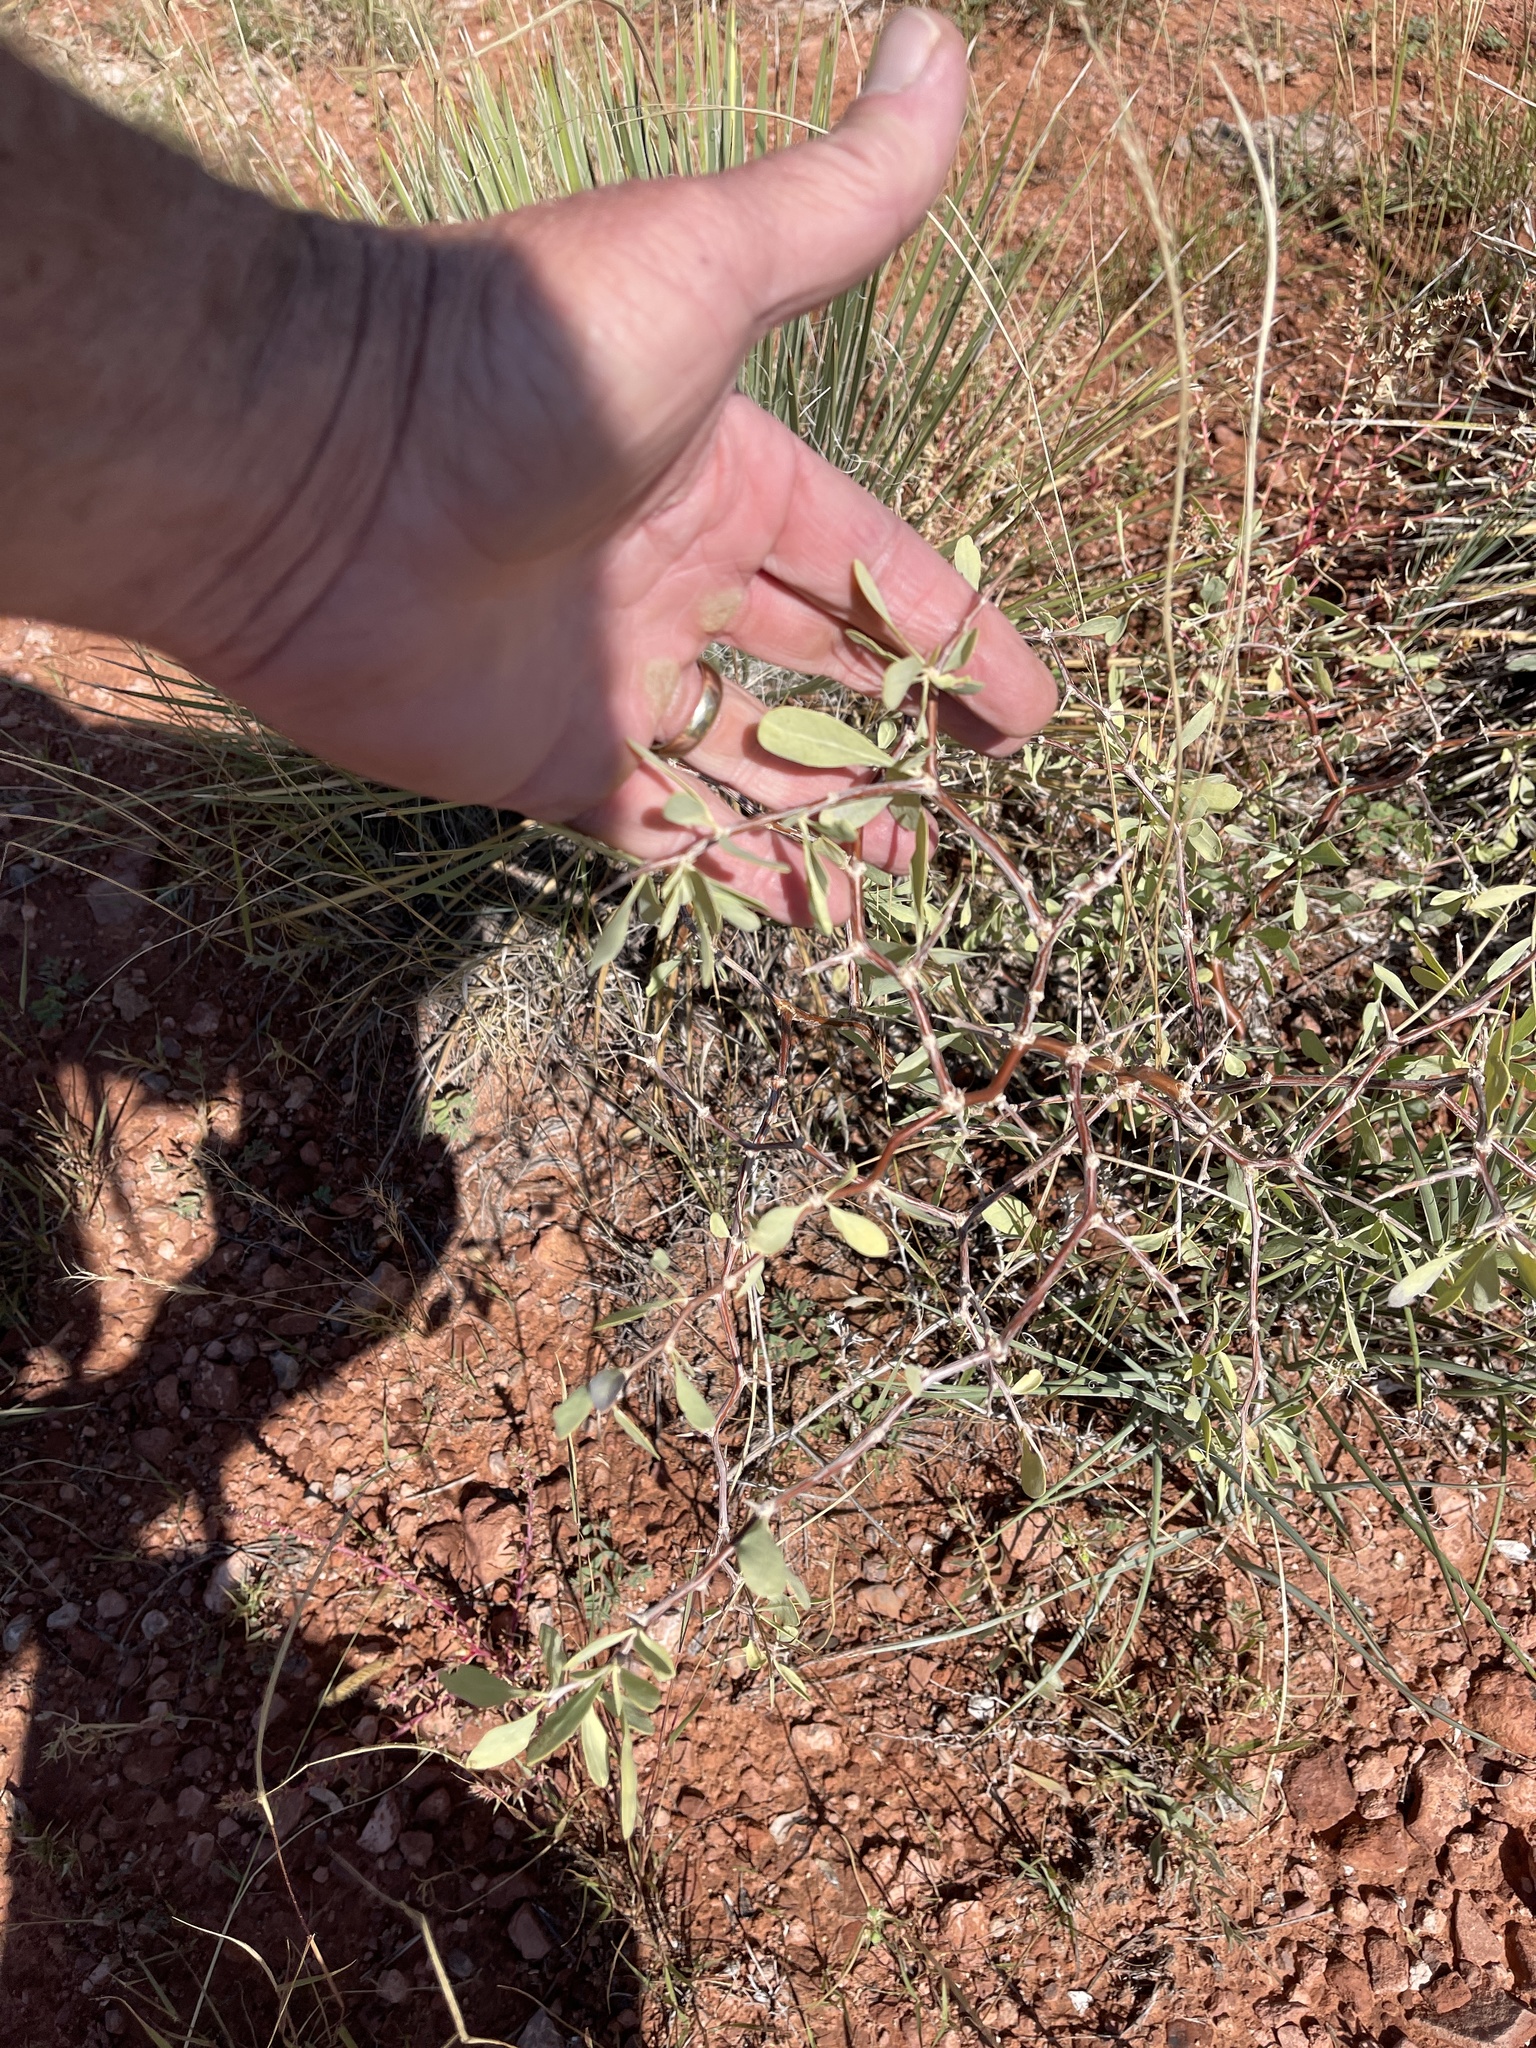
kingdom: Plantae
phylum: Tracheophyta
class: Magnoliopsida
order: Solanales
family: Solanaceae
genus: Lycium
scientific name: Lycium pallidum
